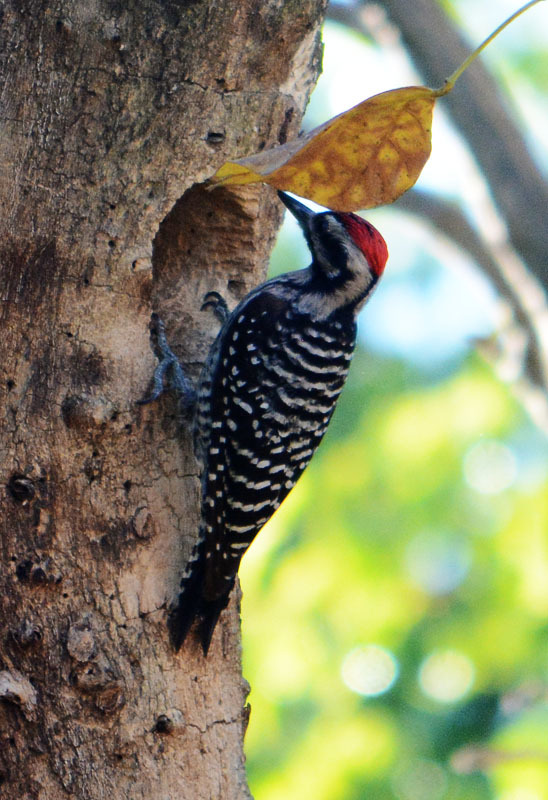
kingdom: Animalia
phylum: Chordata
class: Aves
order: Piciformes
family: Picidae
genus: Dryobates
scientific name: Dryobates scalaris
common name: Ladder-backed woodpecker
